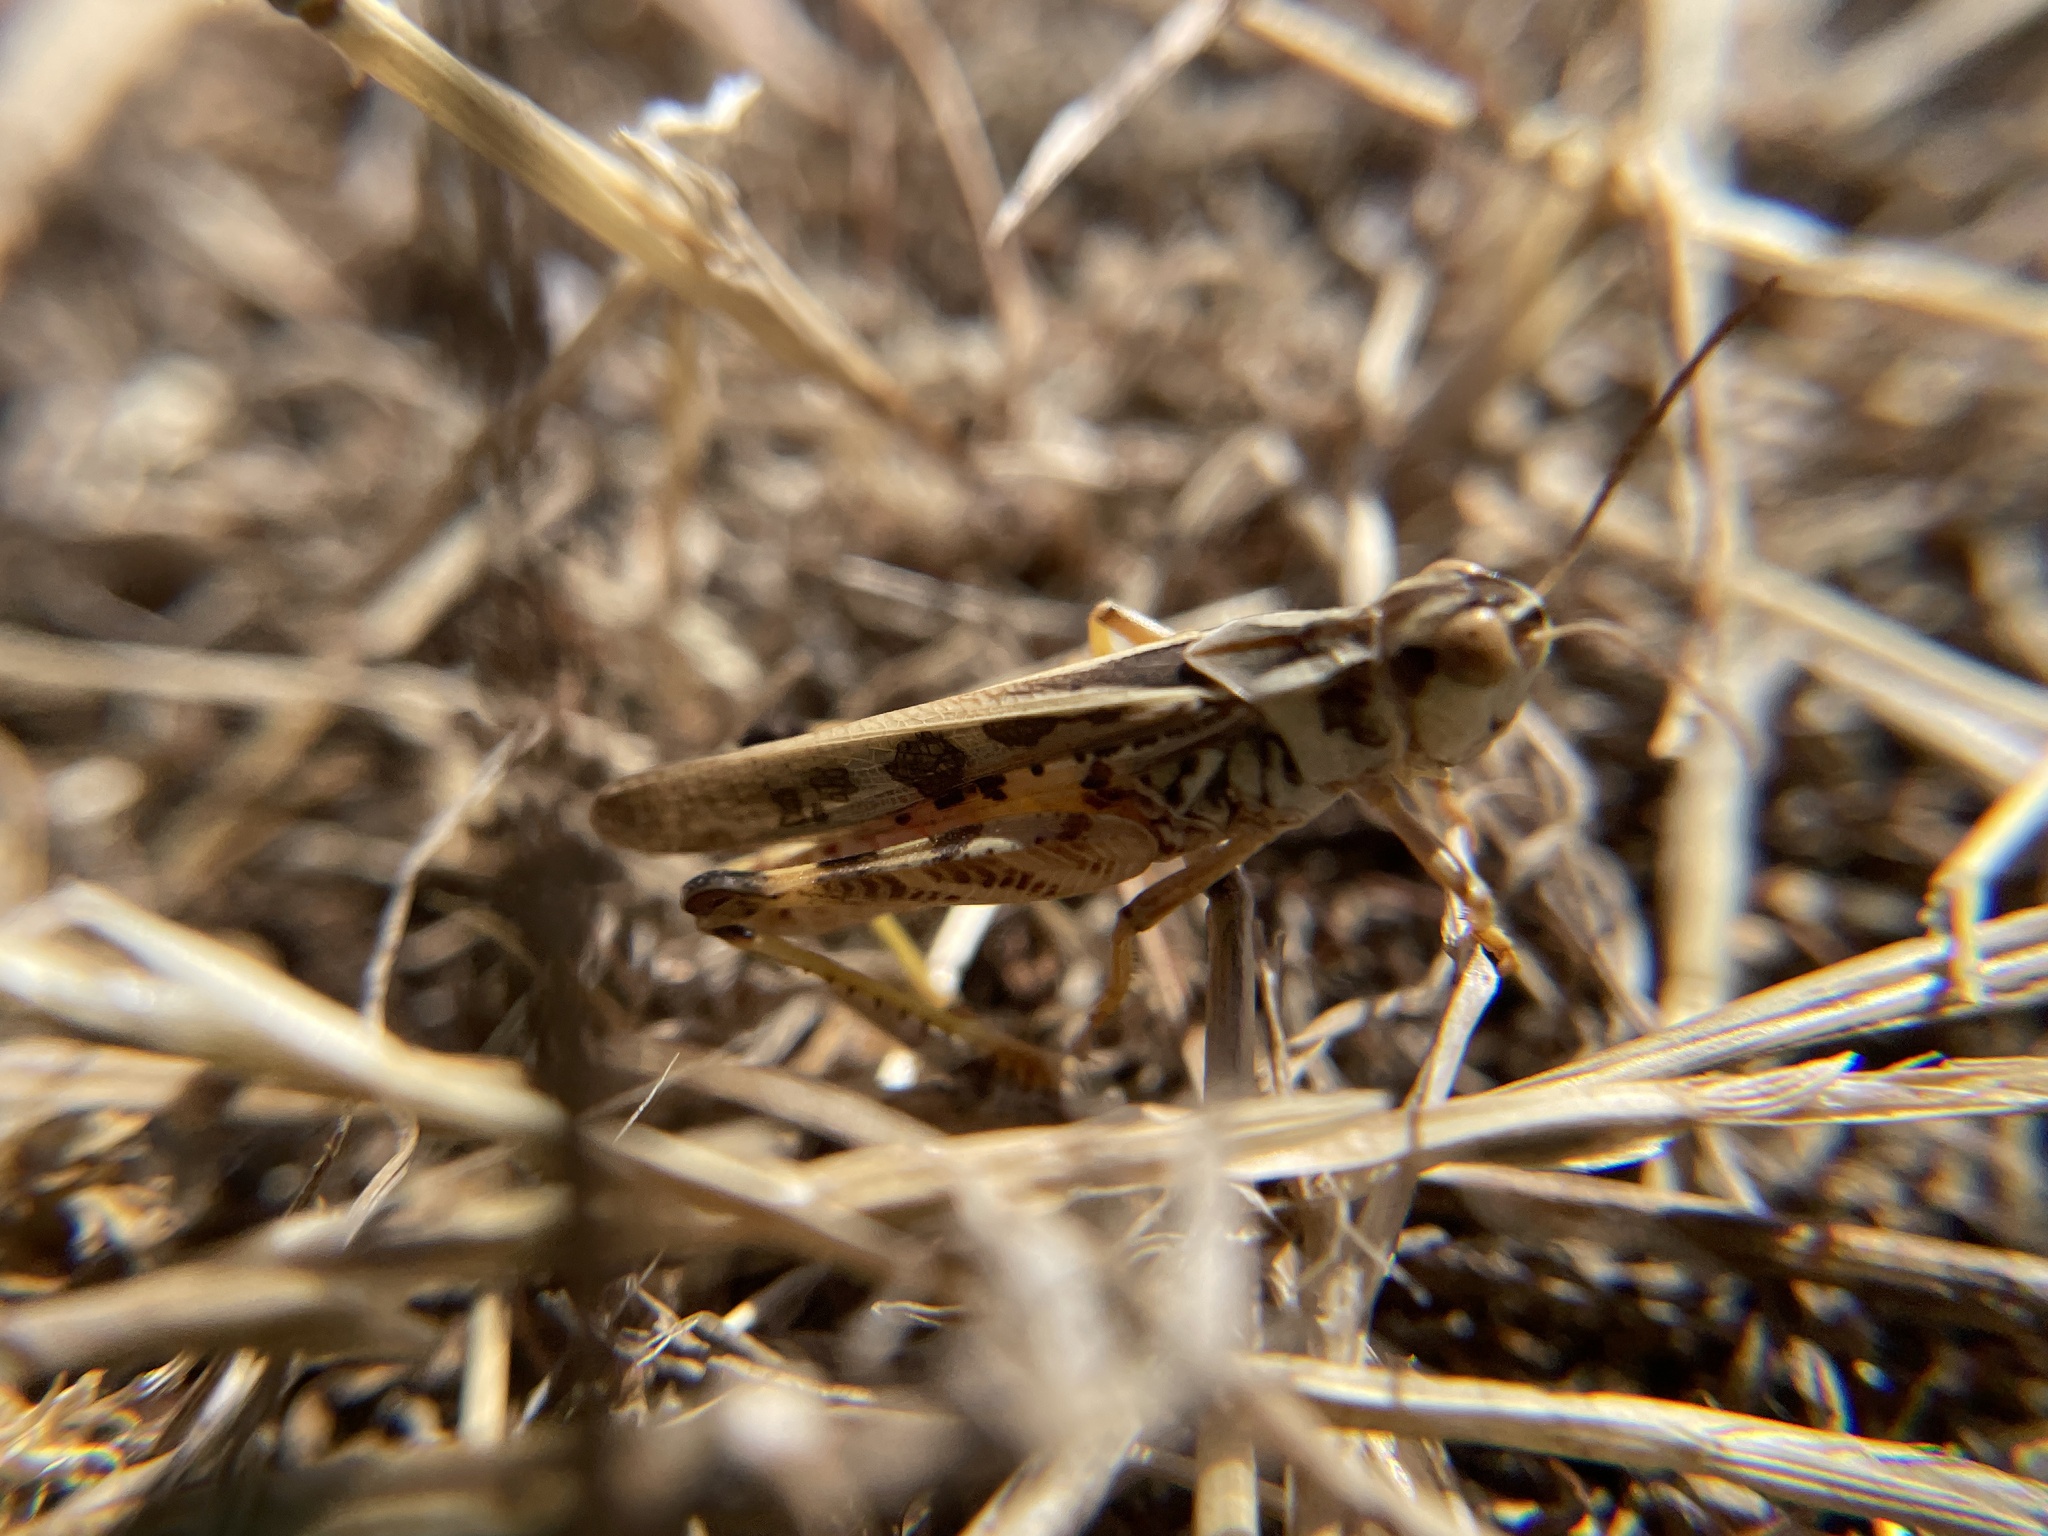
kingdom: Animalia
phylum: Arthropoda
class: Insecta
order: Orthoptera
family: Acrididae
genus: Camnula
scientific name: Camnula pellucida
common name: Clear-winged grasshopper
